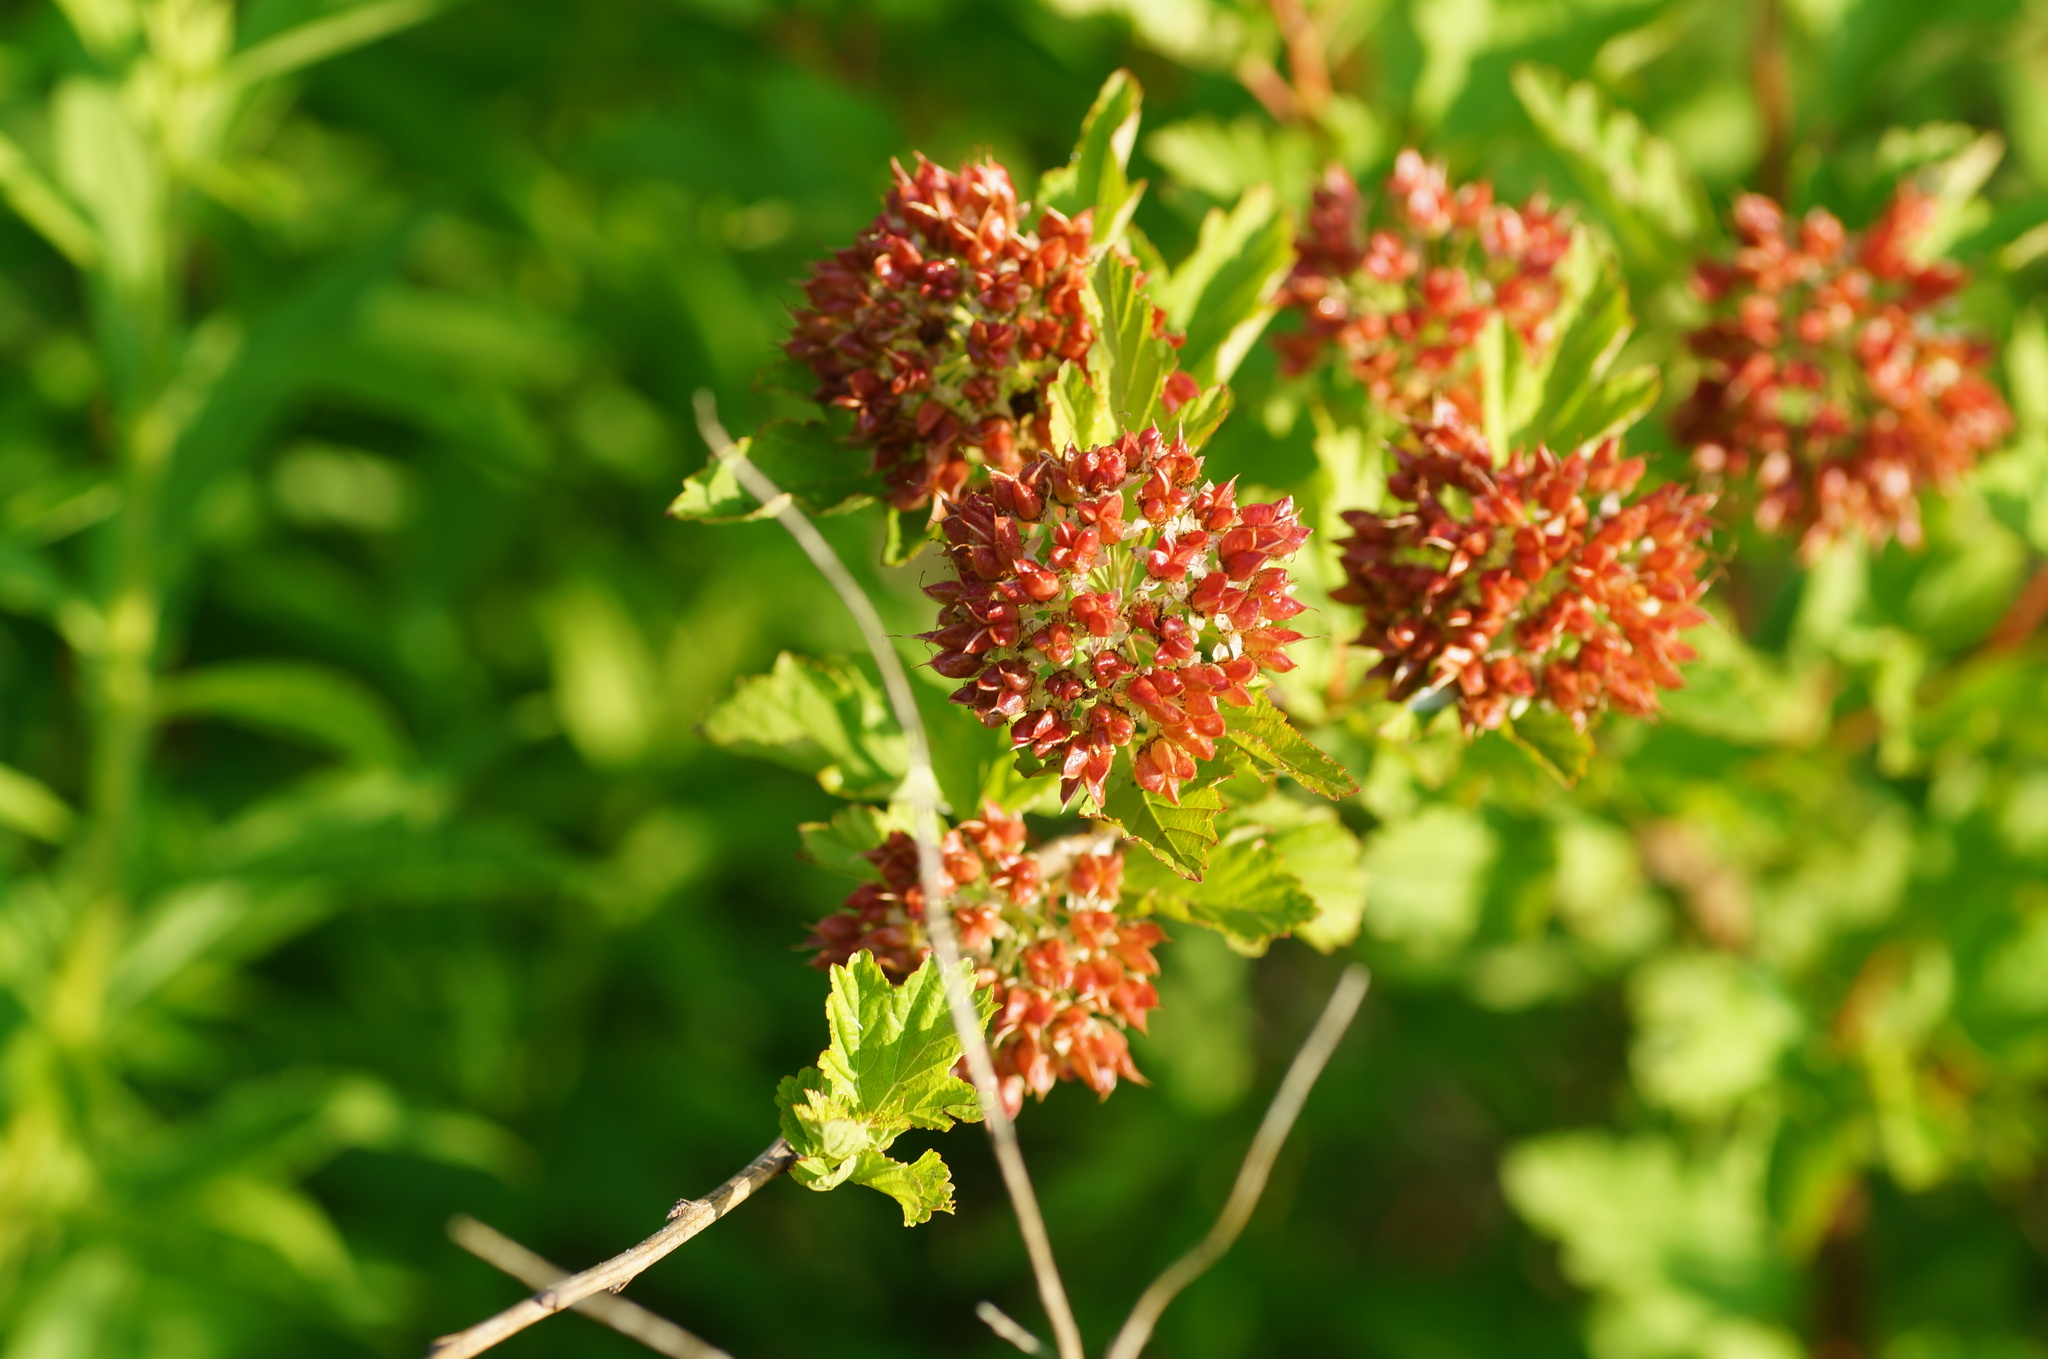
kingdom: Plantae
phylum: Tracheophyta
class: Magnoliopsida
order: Rosales
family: Rosaceae
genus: Physocarpus
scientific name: Physocarpus opulifolius
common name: Ninebark
